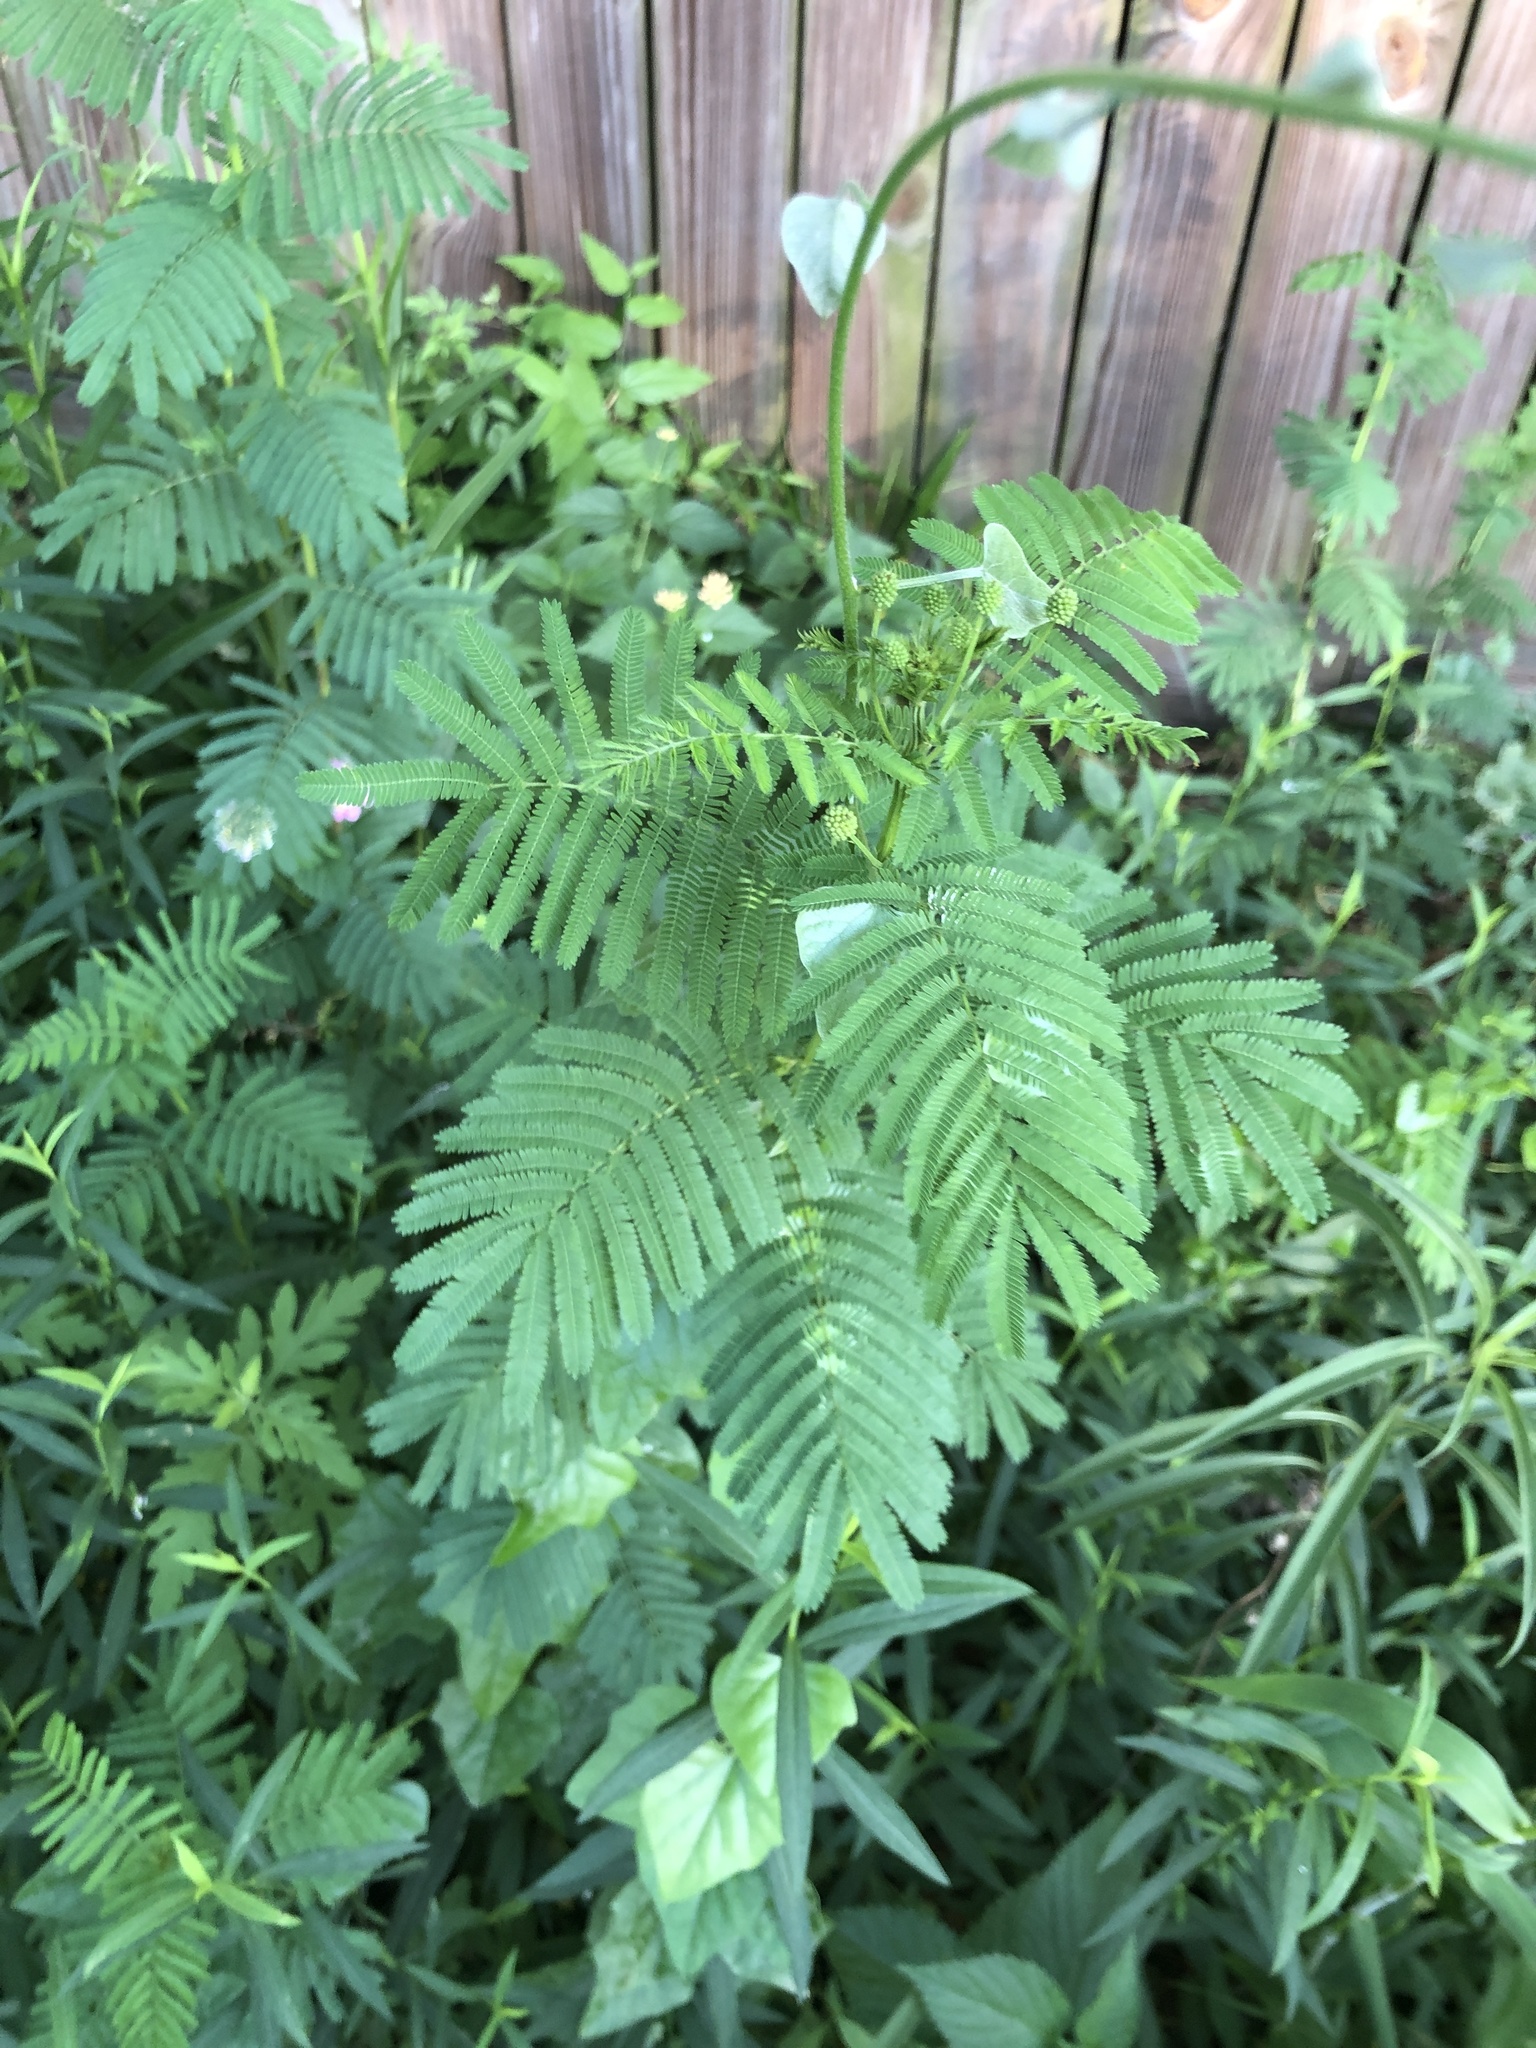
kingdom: Plantae
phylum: Tracheophyta
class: Magnoliopsida
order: Fabales
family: Fabaceae
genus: Desmanthus
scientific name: Desmanthus illinoensis
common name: Illinois bundle-flower
